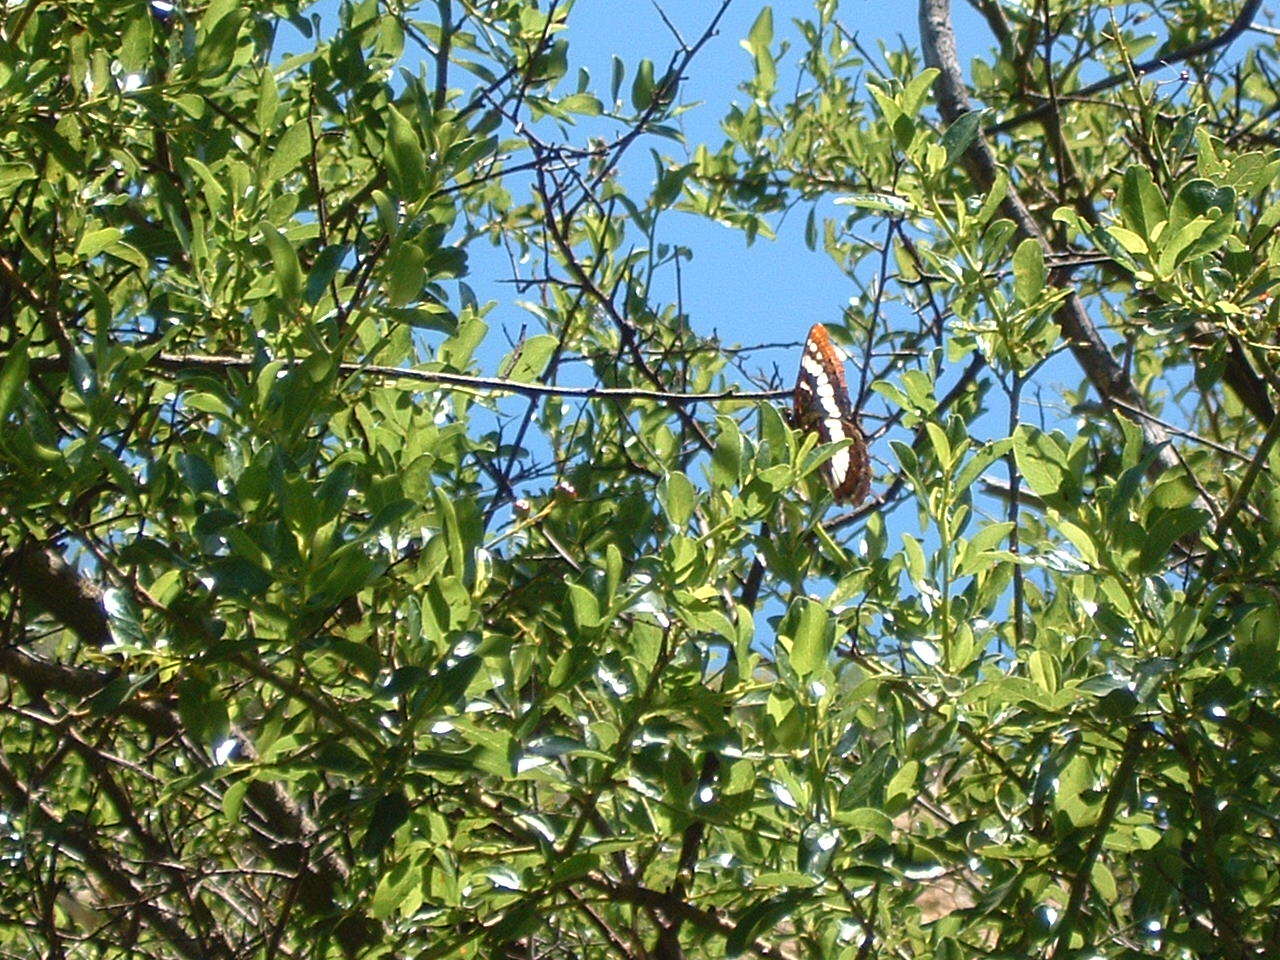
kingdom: Animalia
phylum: Arthropoda
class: Insecta
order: Lepidoptera
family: Nymphalidae
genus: Limenitis
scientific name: Limenitis lorquini
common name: Lorquin's admiral
